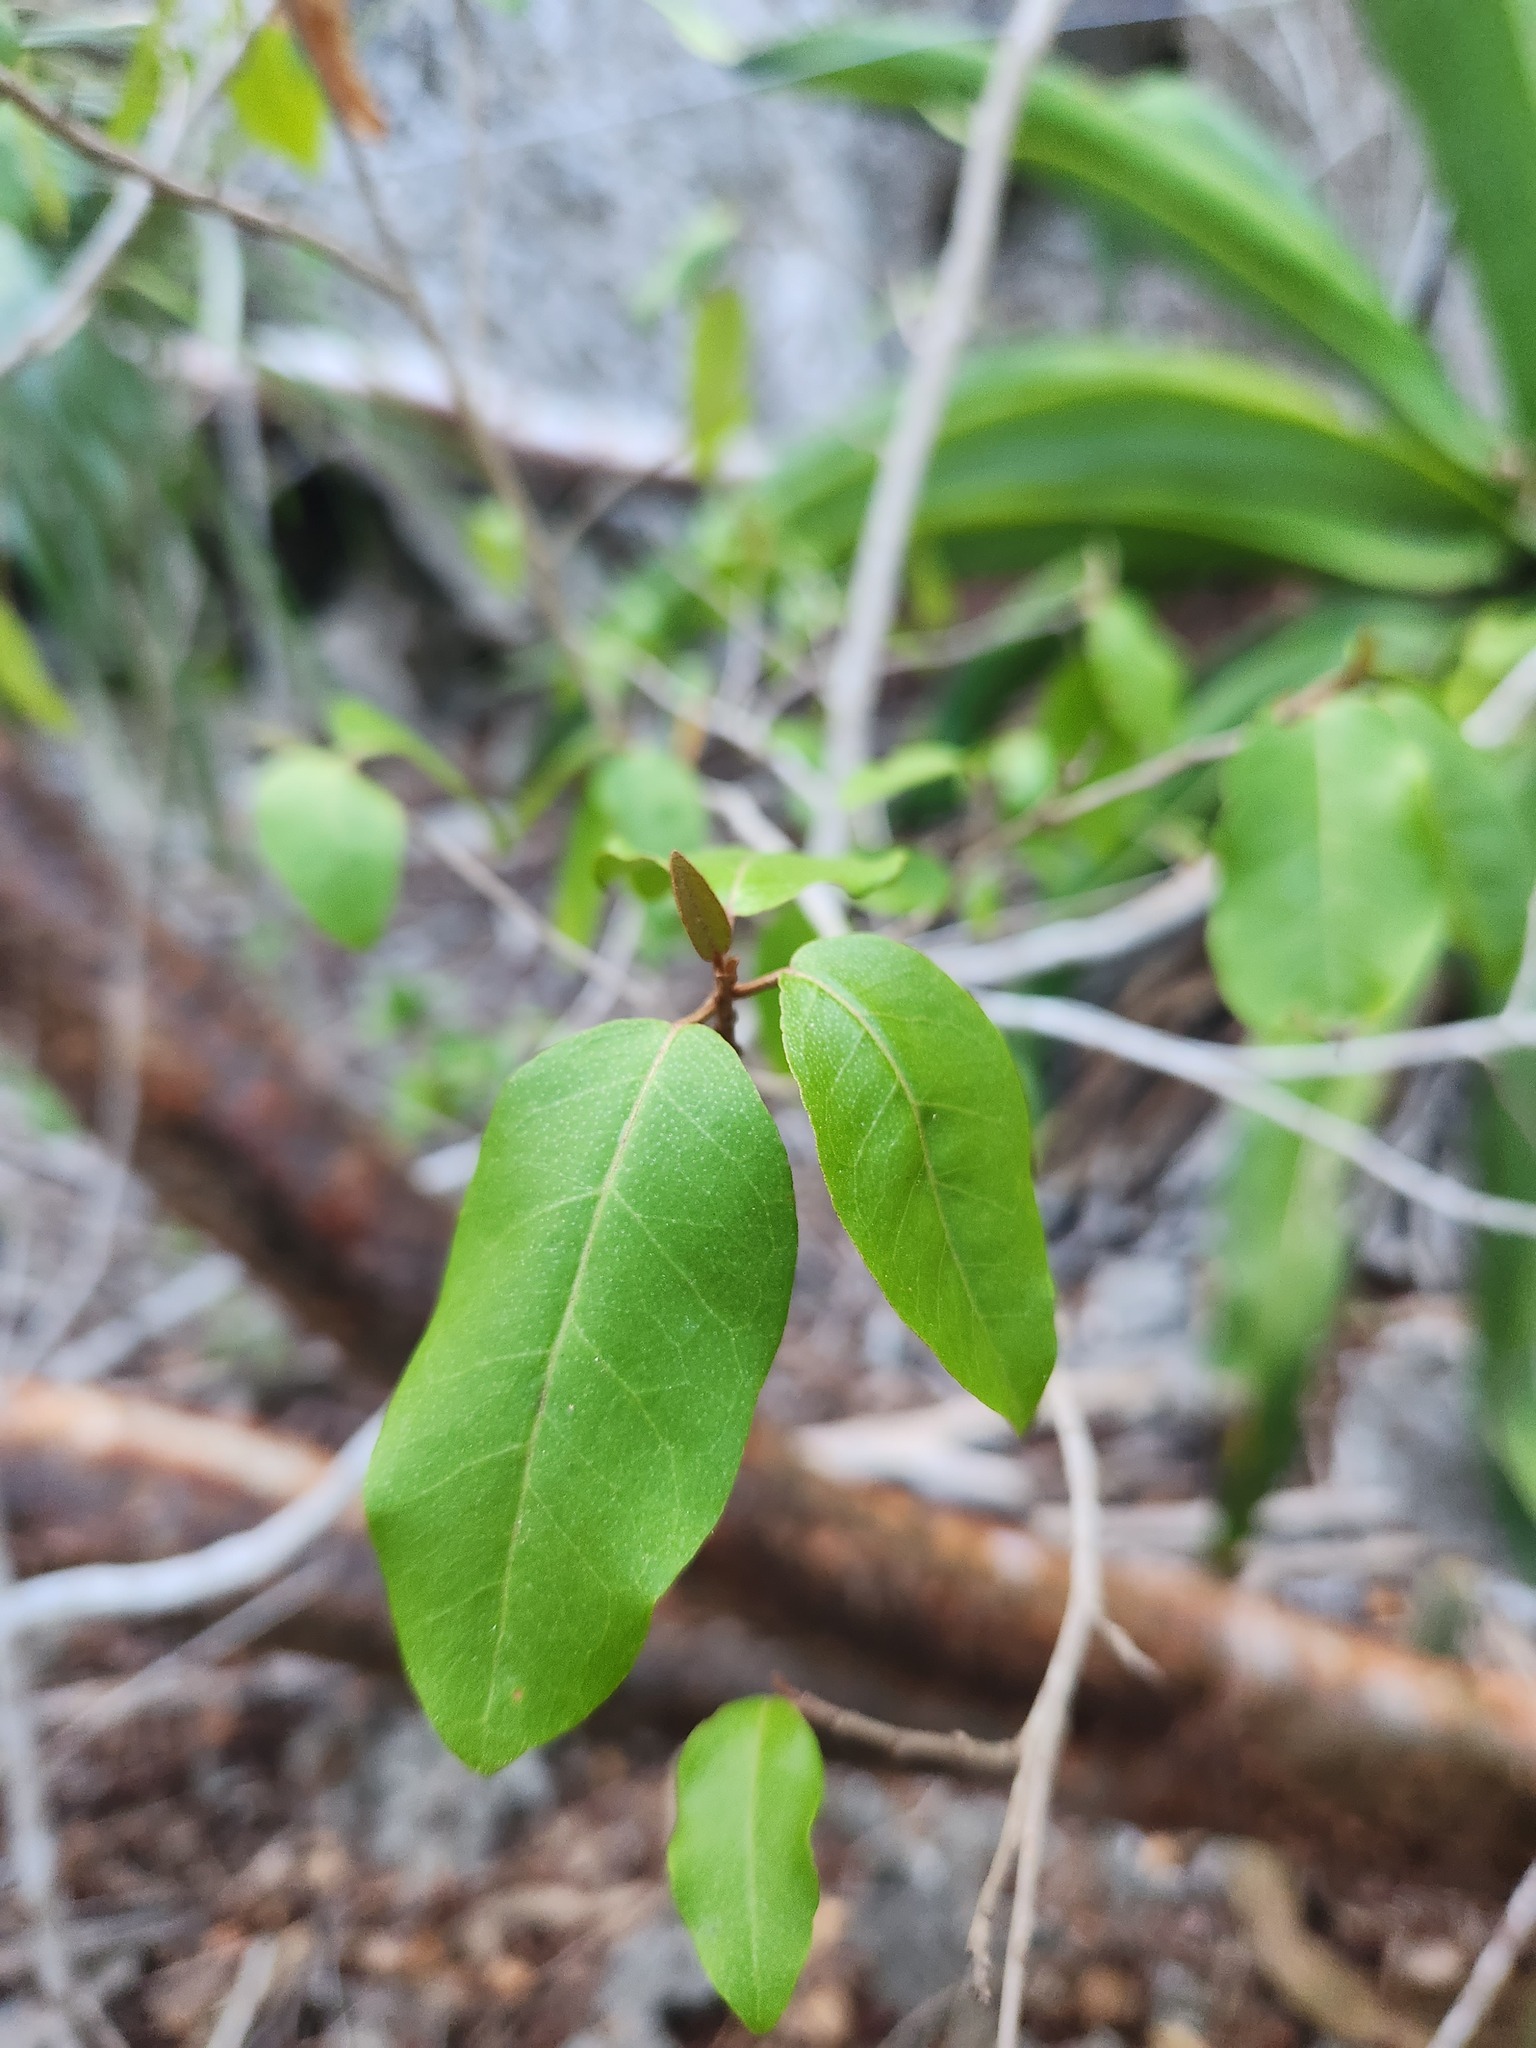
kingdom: Plantae
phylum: Tracheophyta
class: Magnoliopsida
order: Malpighiales
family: Euphorbiaceae
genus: Croton
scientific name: Croton nitens
